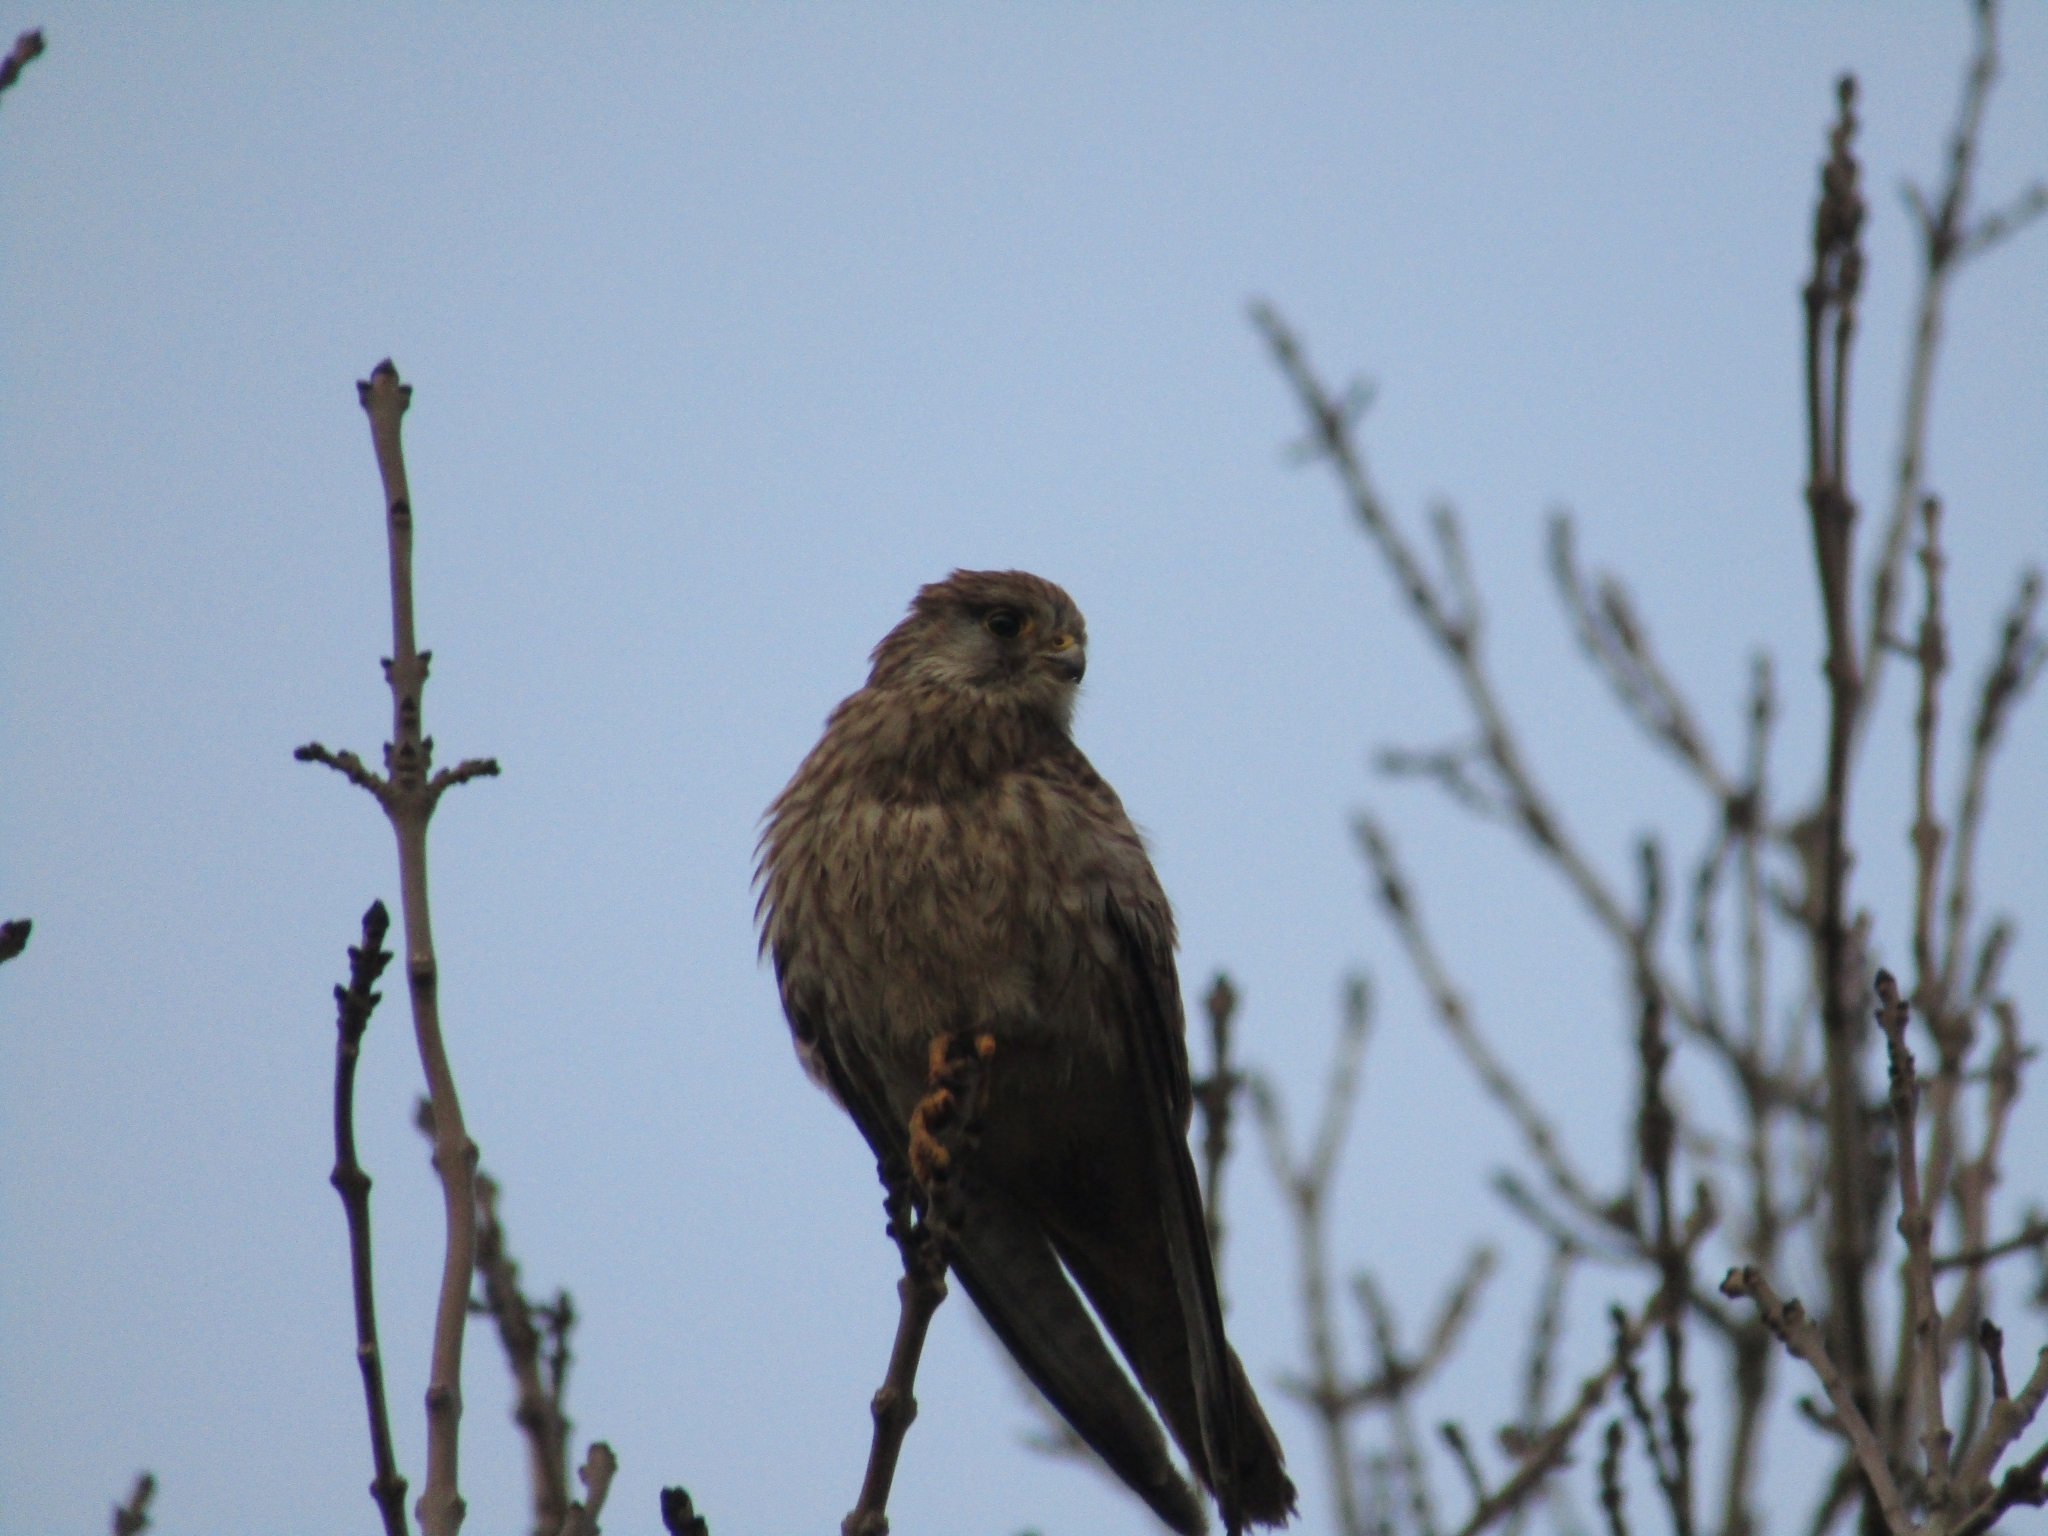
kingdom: Animalia
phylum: Chordata
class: Aves
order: Falconiformes
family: Falconidae
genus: Falco
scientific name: Falco tinnunculus
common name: Common kestrel
